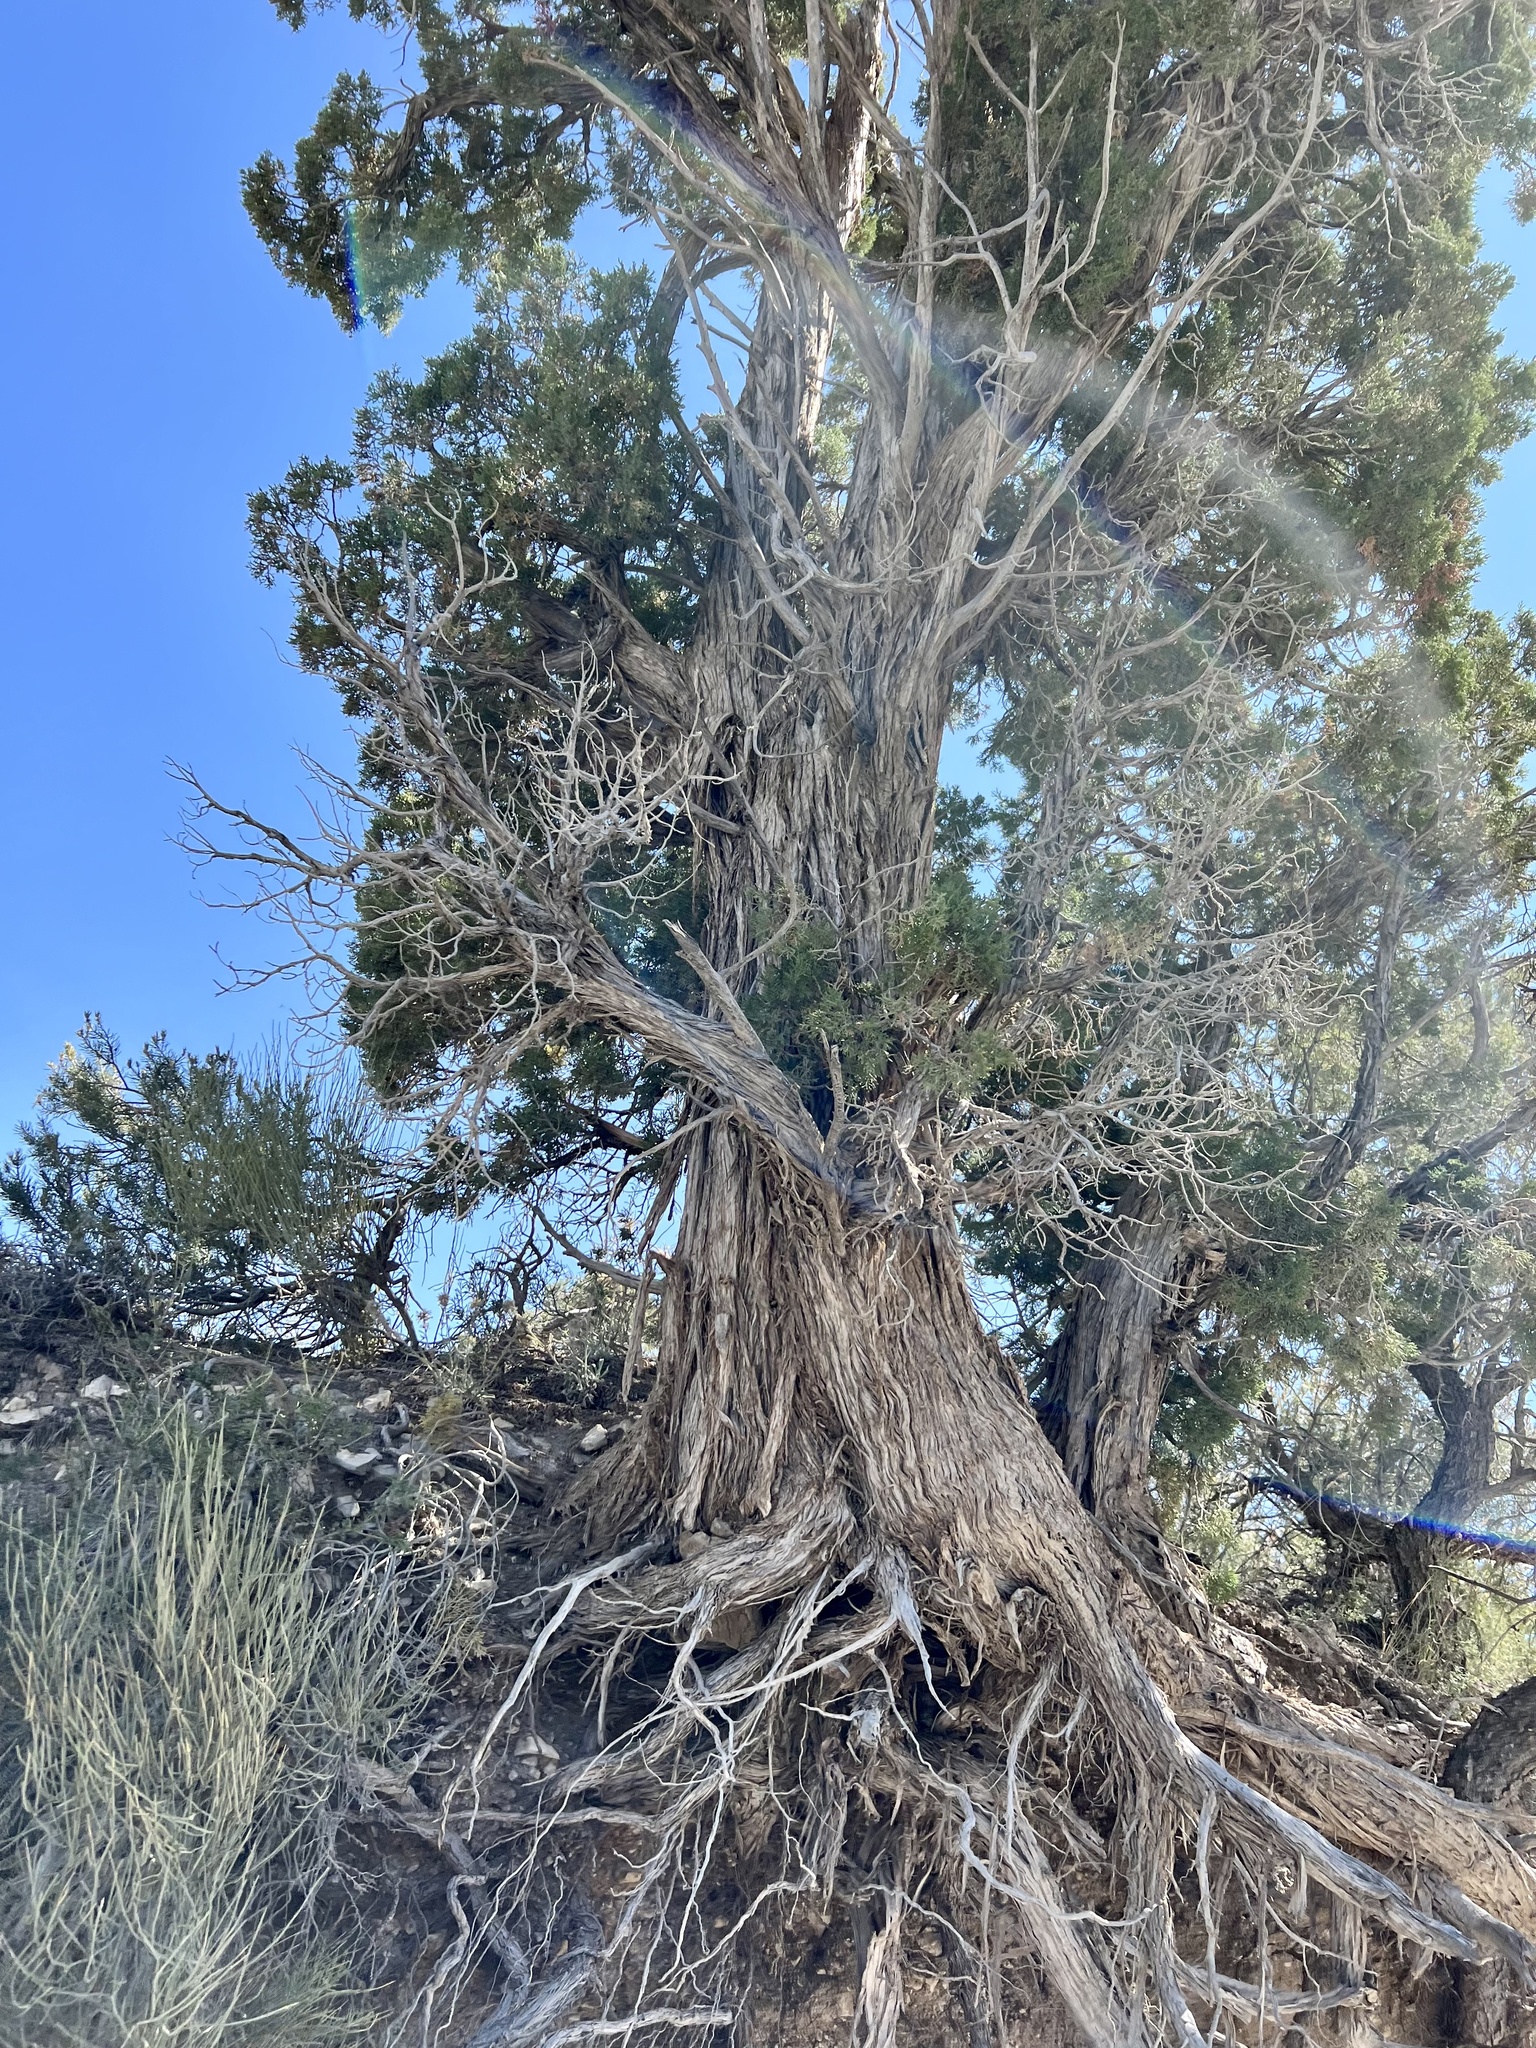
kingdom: Plantae
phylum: Tracheophyta
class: Pinopsida
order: Pinales
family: Cupressaceae
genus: Juniperus
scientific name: Juniperus osteosperma
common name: Utah juniper
